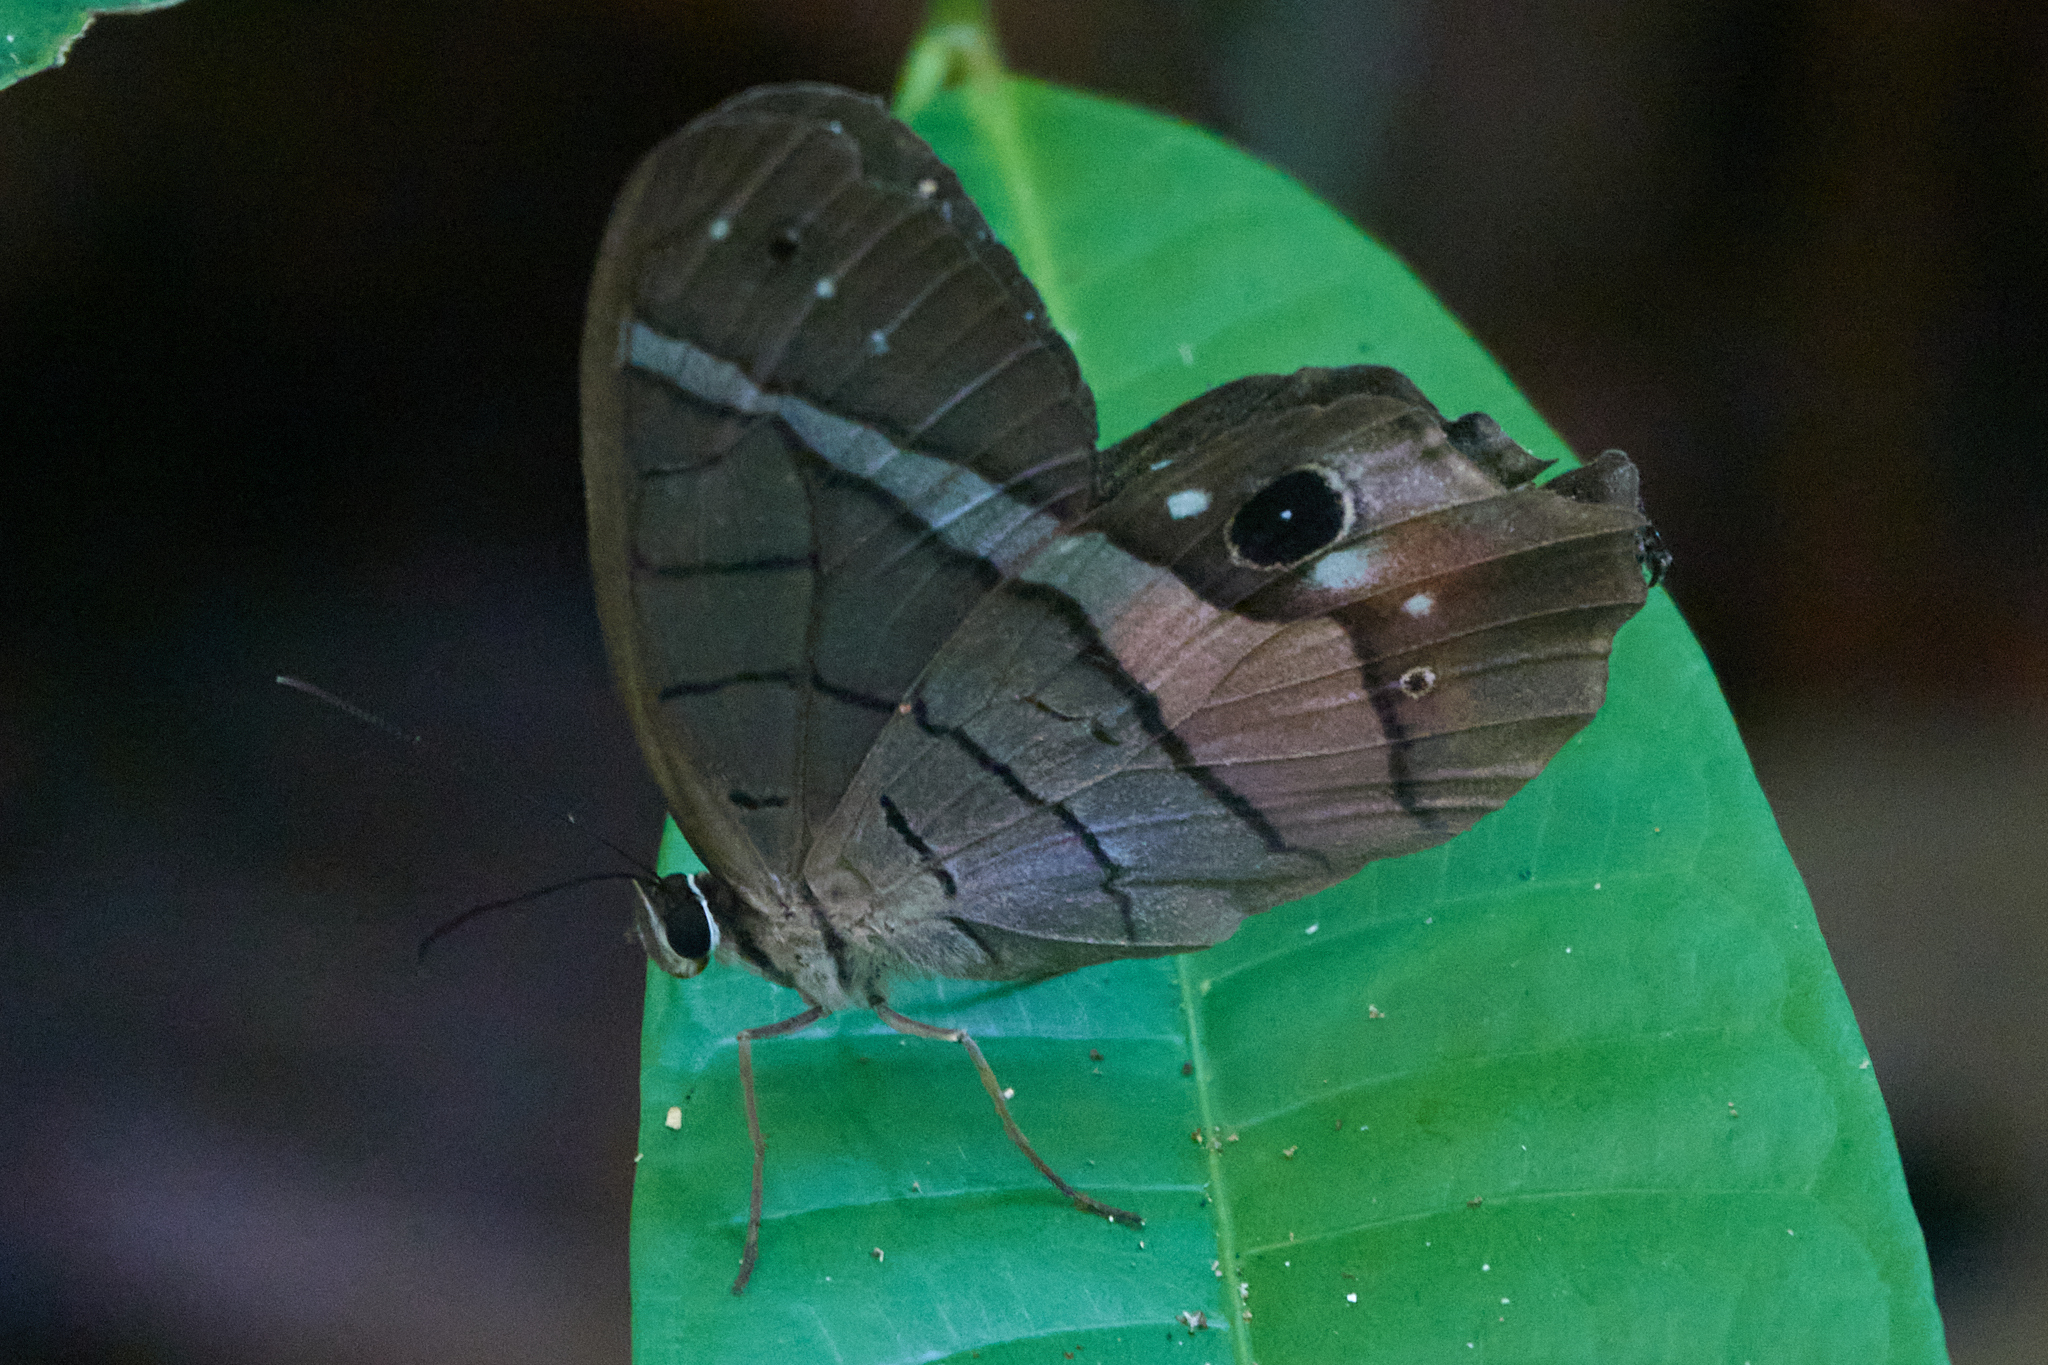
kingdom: Animalia
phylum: Arthropoda
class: Insecta
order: Lepidoptera
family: Nymphalidae
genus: Pierella
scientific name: Pierella helvina
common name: Red-washed satyr
